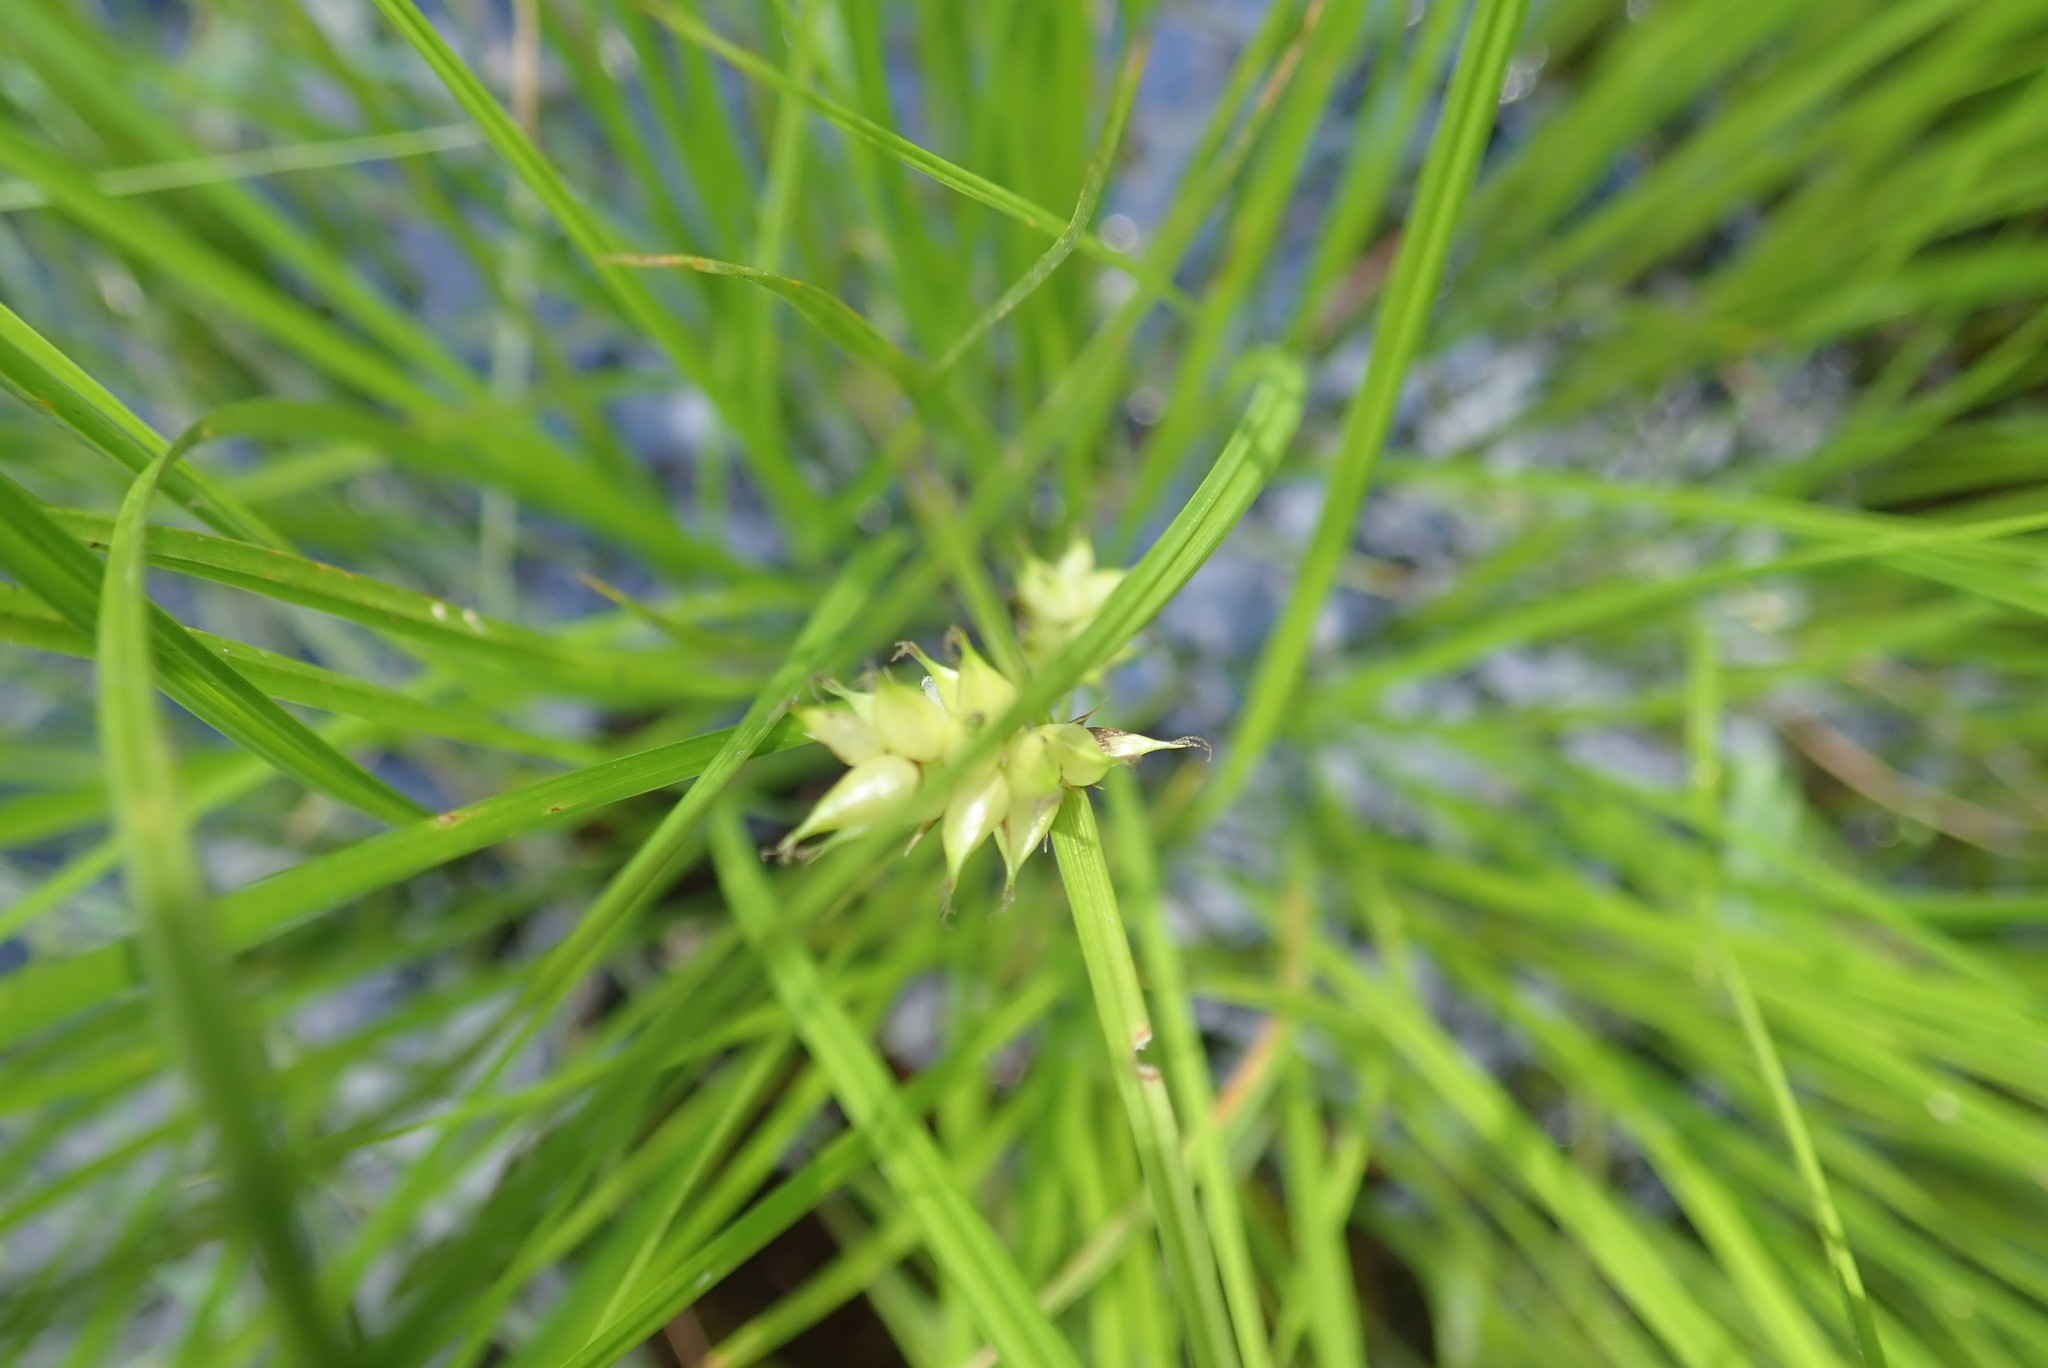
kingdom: Plantae
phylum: Tracheophyta
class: Liliopsida
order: Poales
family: Cyperaceae
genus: Carex
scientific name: Carex vesicaria
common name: Bladder-sedge
